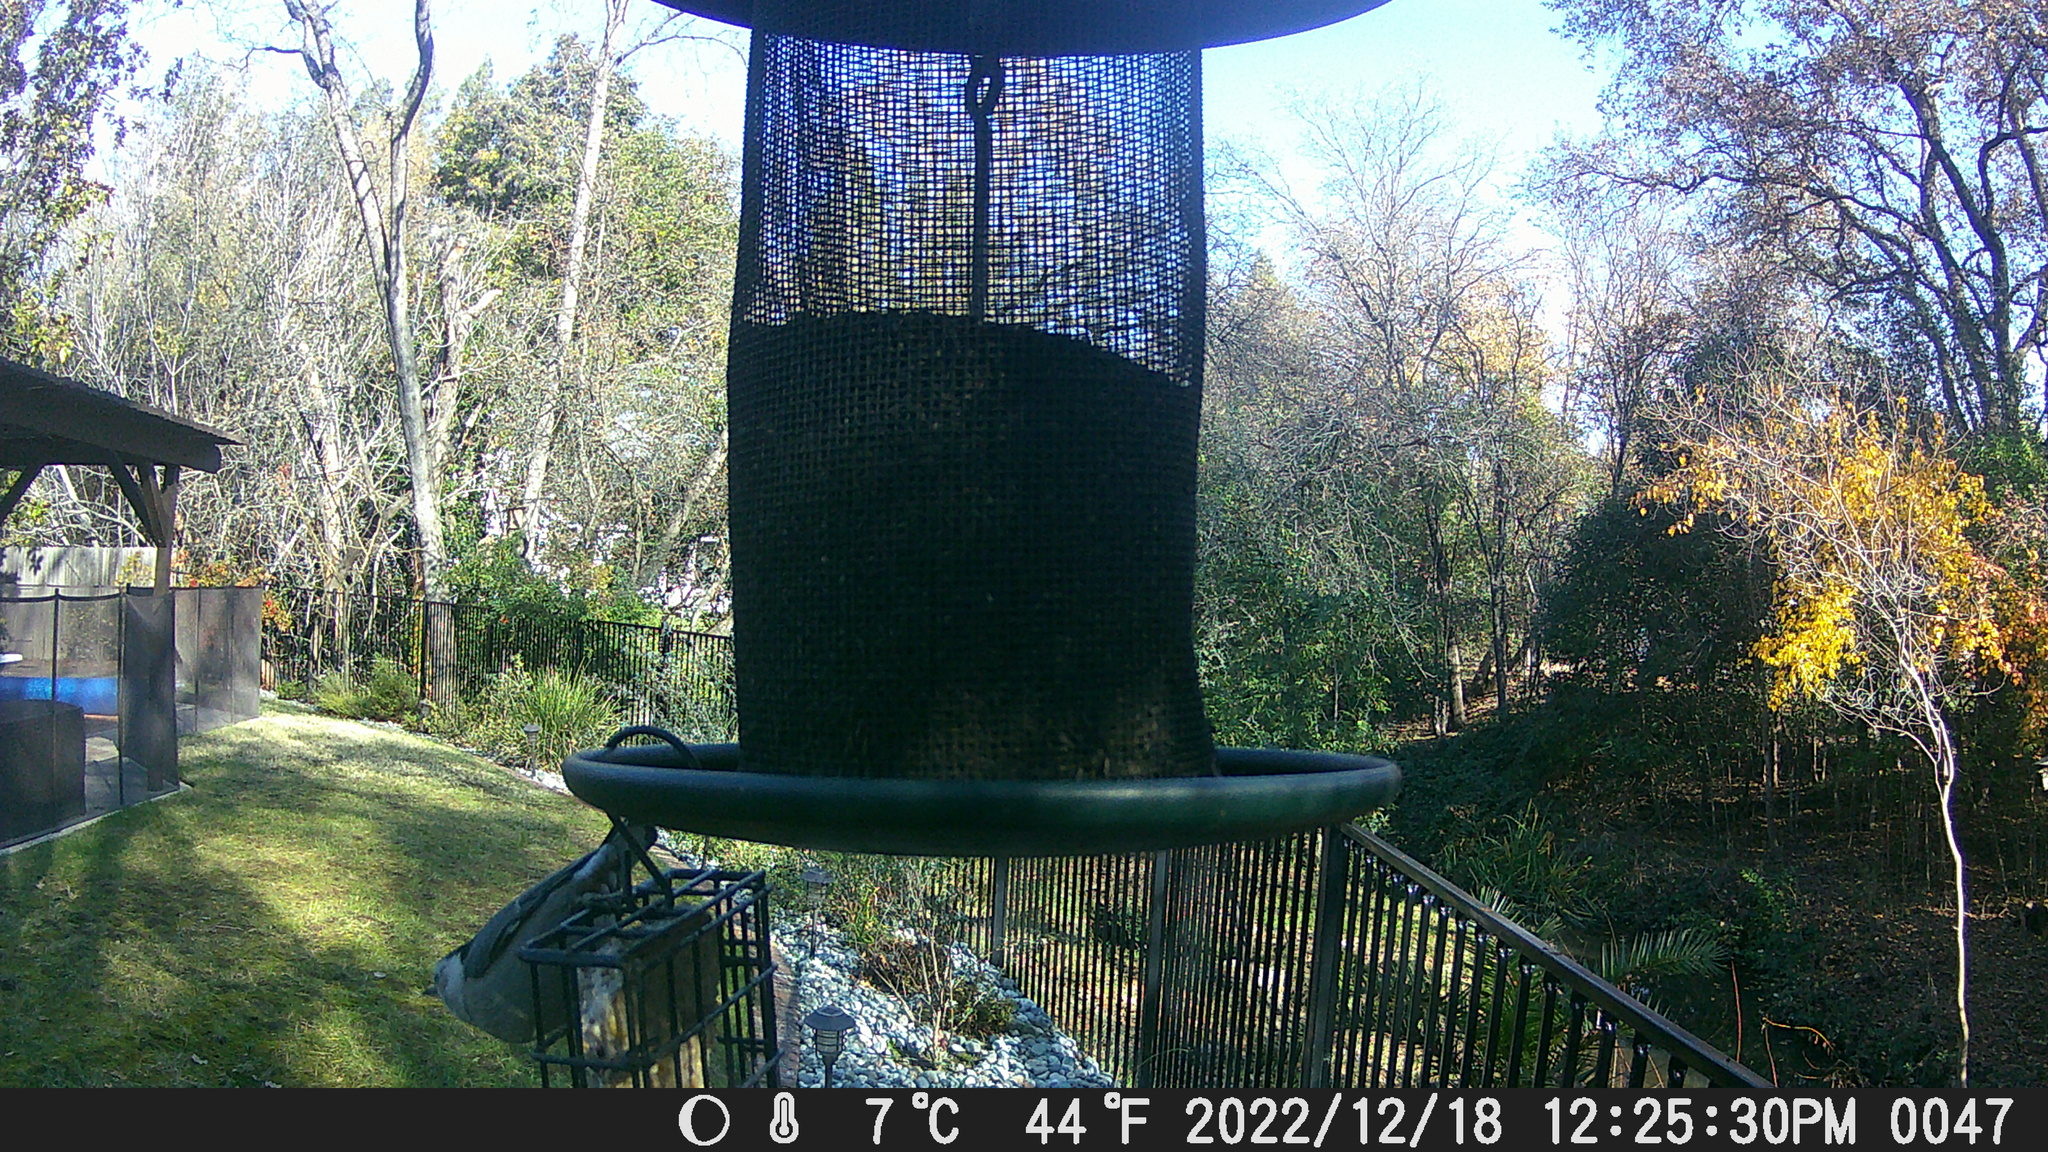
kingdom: Animalia
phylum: Chordata
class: Aves
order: Passeriformes
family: Sittidae
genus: Sitta
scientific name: Sitta carolinensis
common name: White-breasted nuthatch
